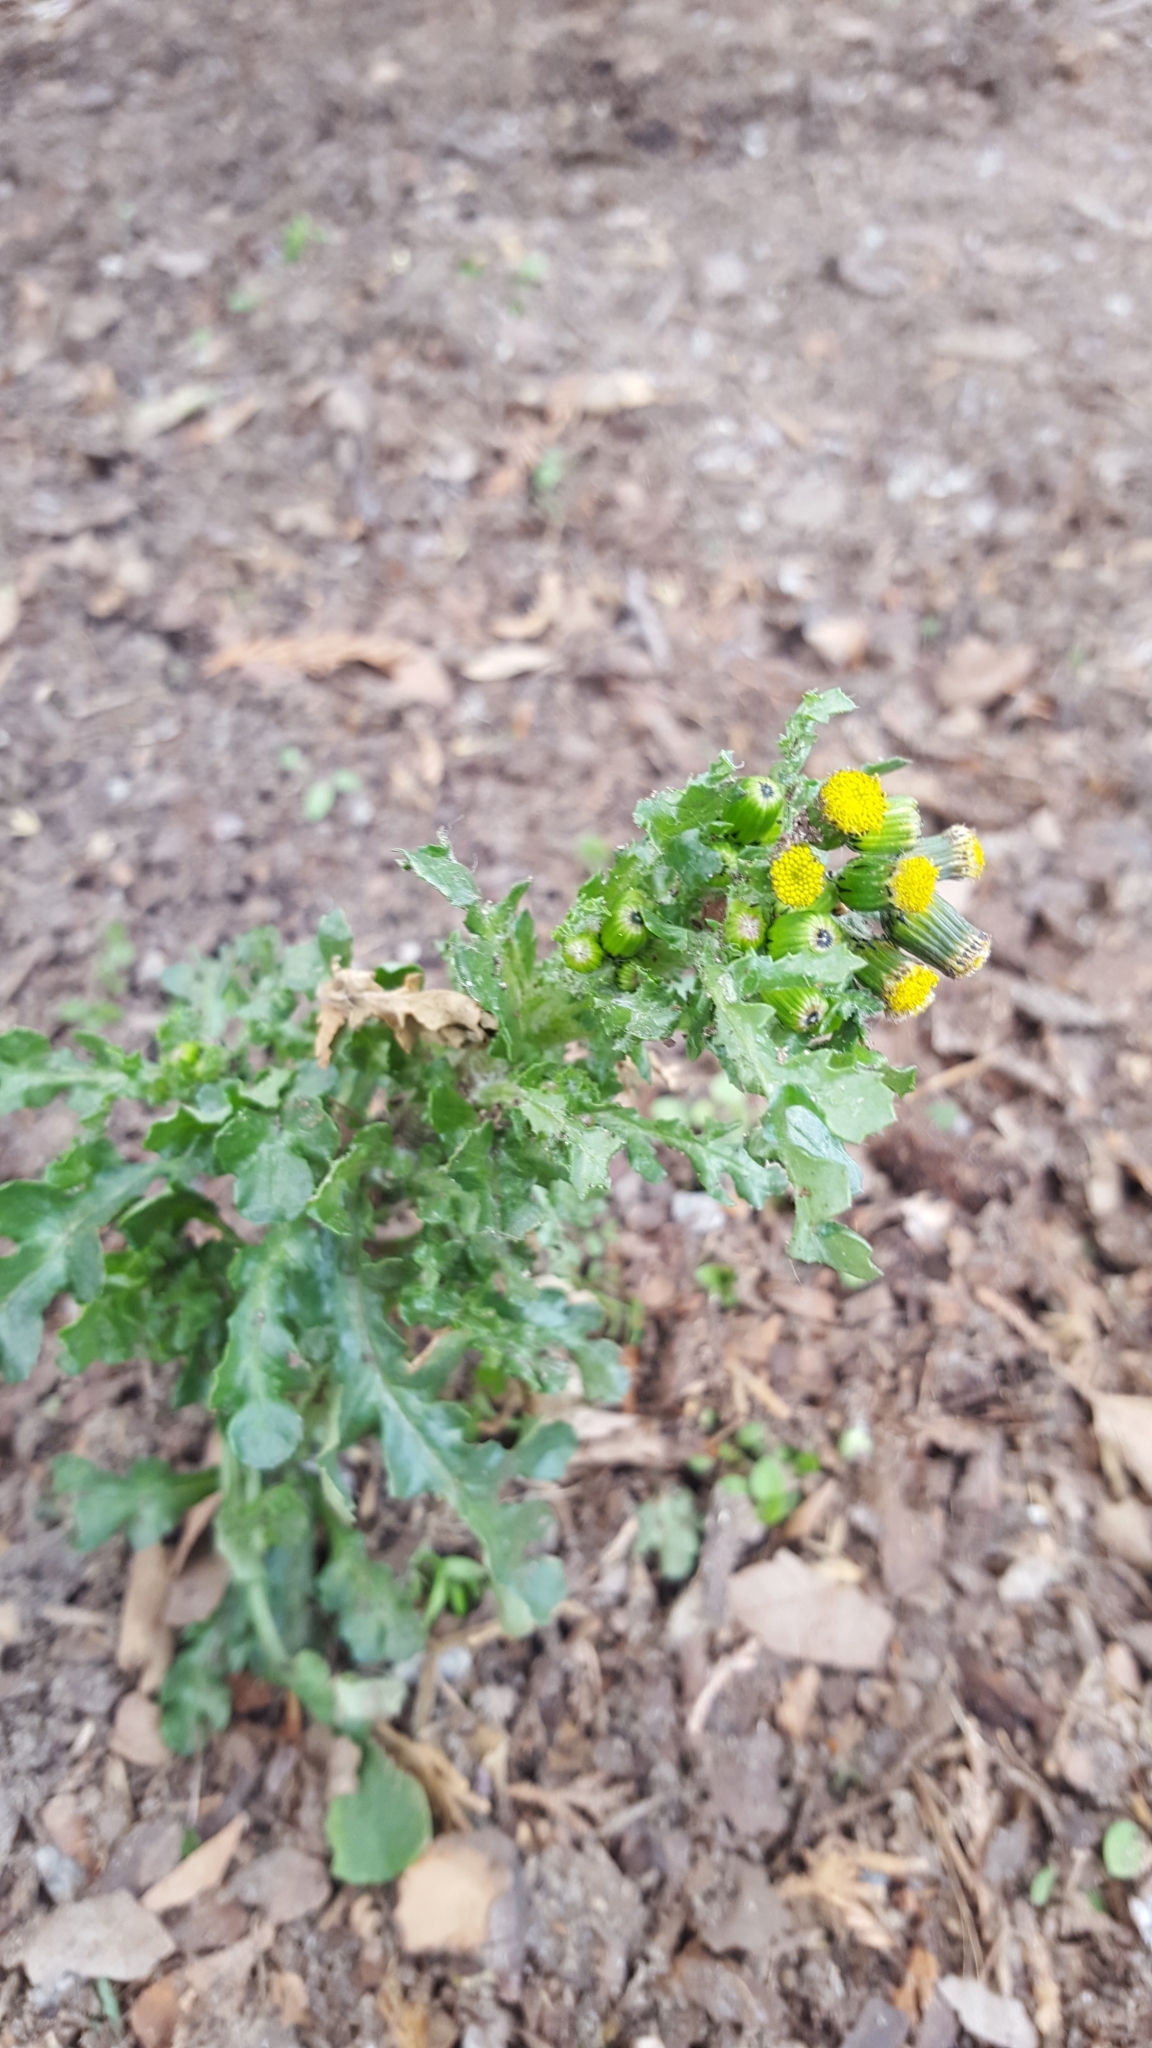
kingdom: Plantae
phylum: Tracheophyta
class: Magnoliopsida
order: Asterales
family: Asteraceae
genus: Senecio
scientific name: Senecio vulgaris
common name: Old-man-in-the-spring
